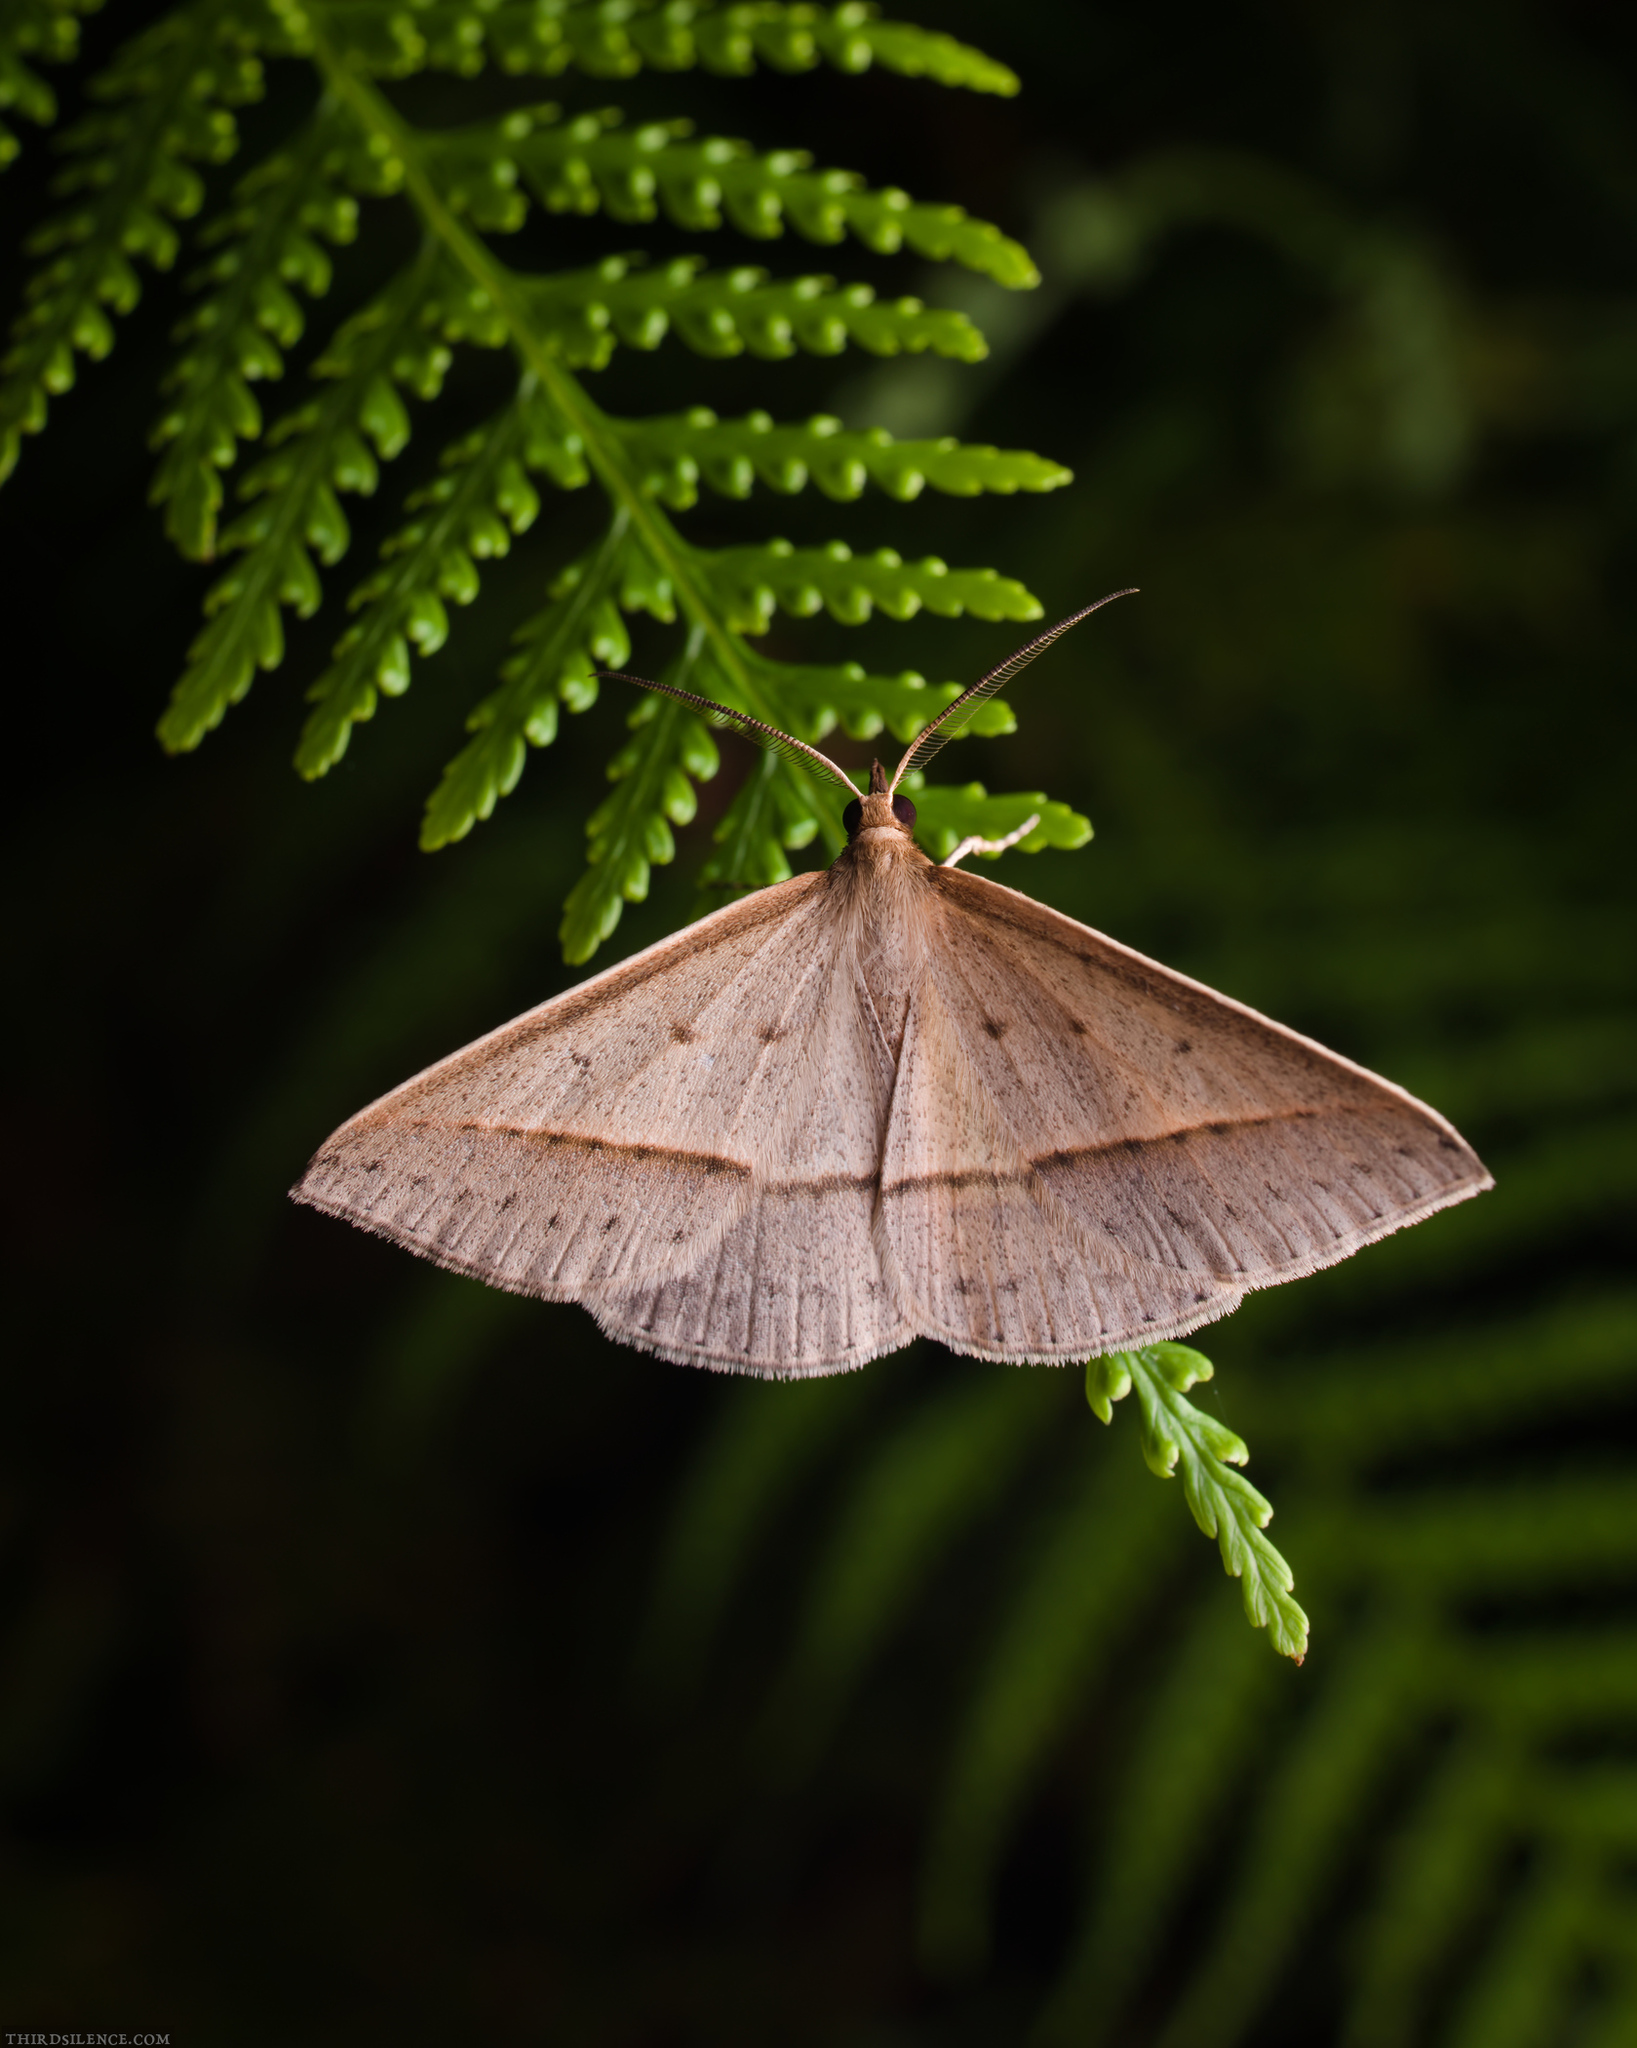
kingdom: Animalia
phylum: Arthropoda
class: Insecta
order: Lepidoptera
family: Geometridae
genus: Epidesmia
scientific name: Epidesmia tryxaria
